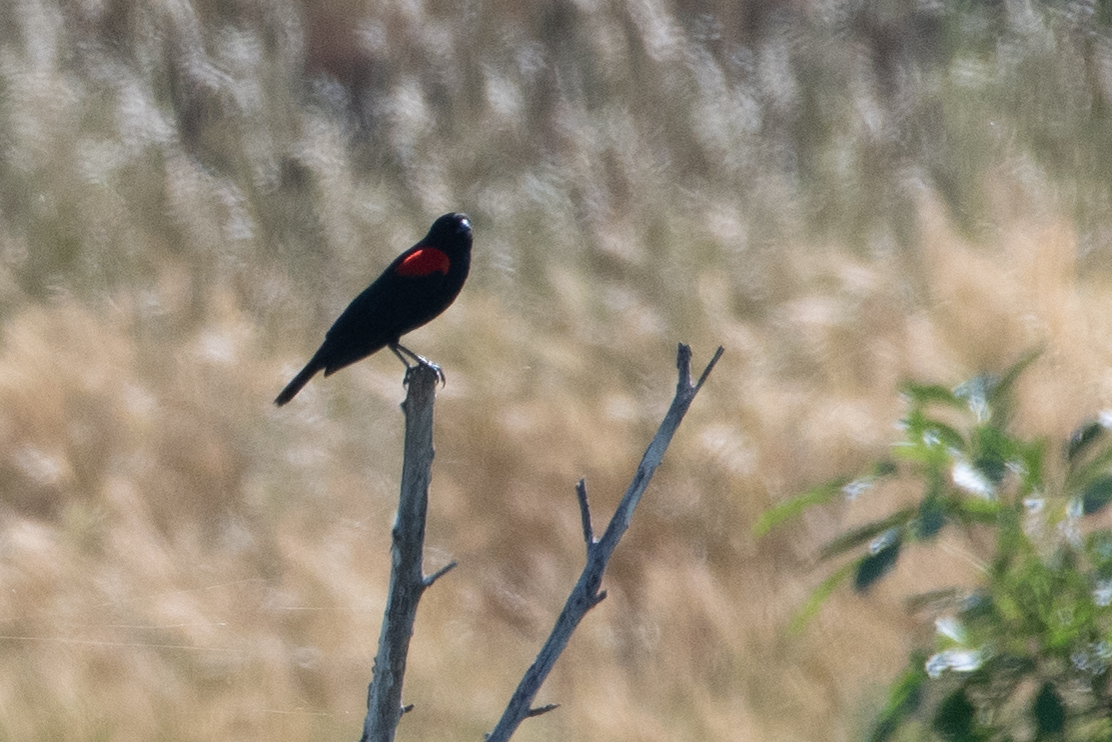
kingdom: Animalia
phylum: Chordata
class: Aves
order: Passeriformes
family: Icteridae
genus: Agelaius
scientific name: Agelaius phoeniceus
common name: Red-winged blackbird
